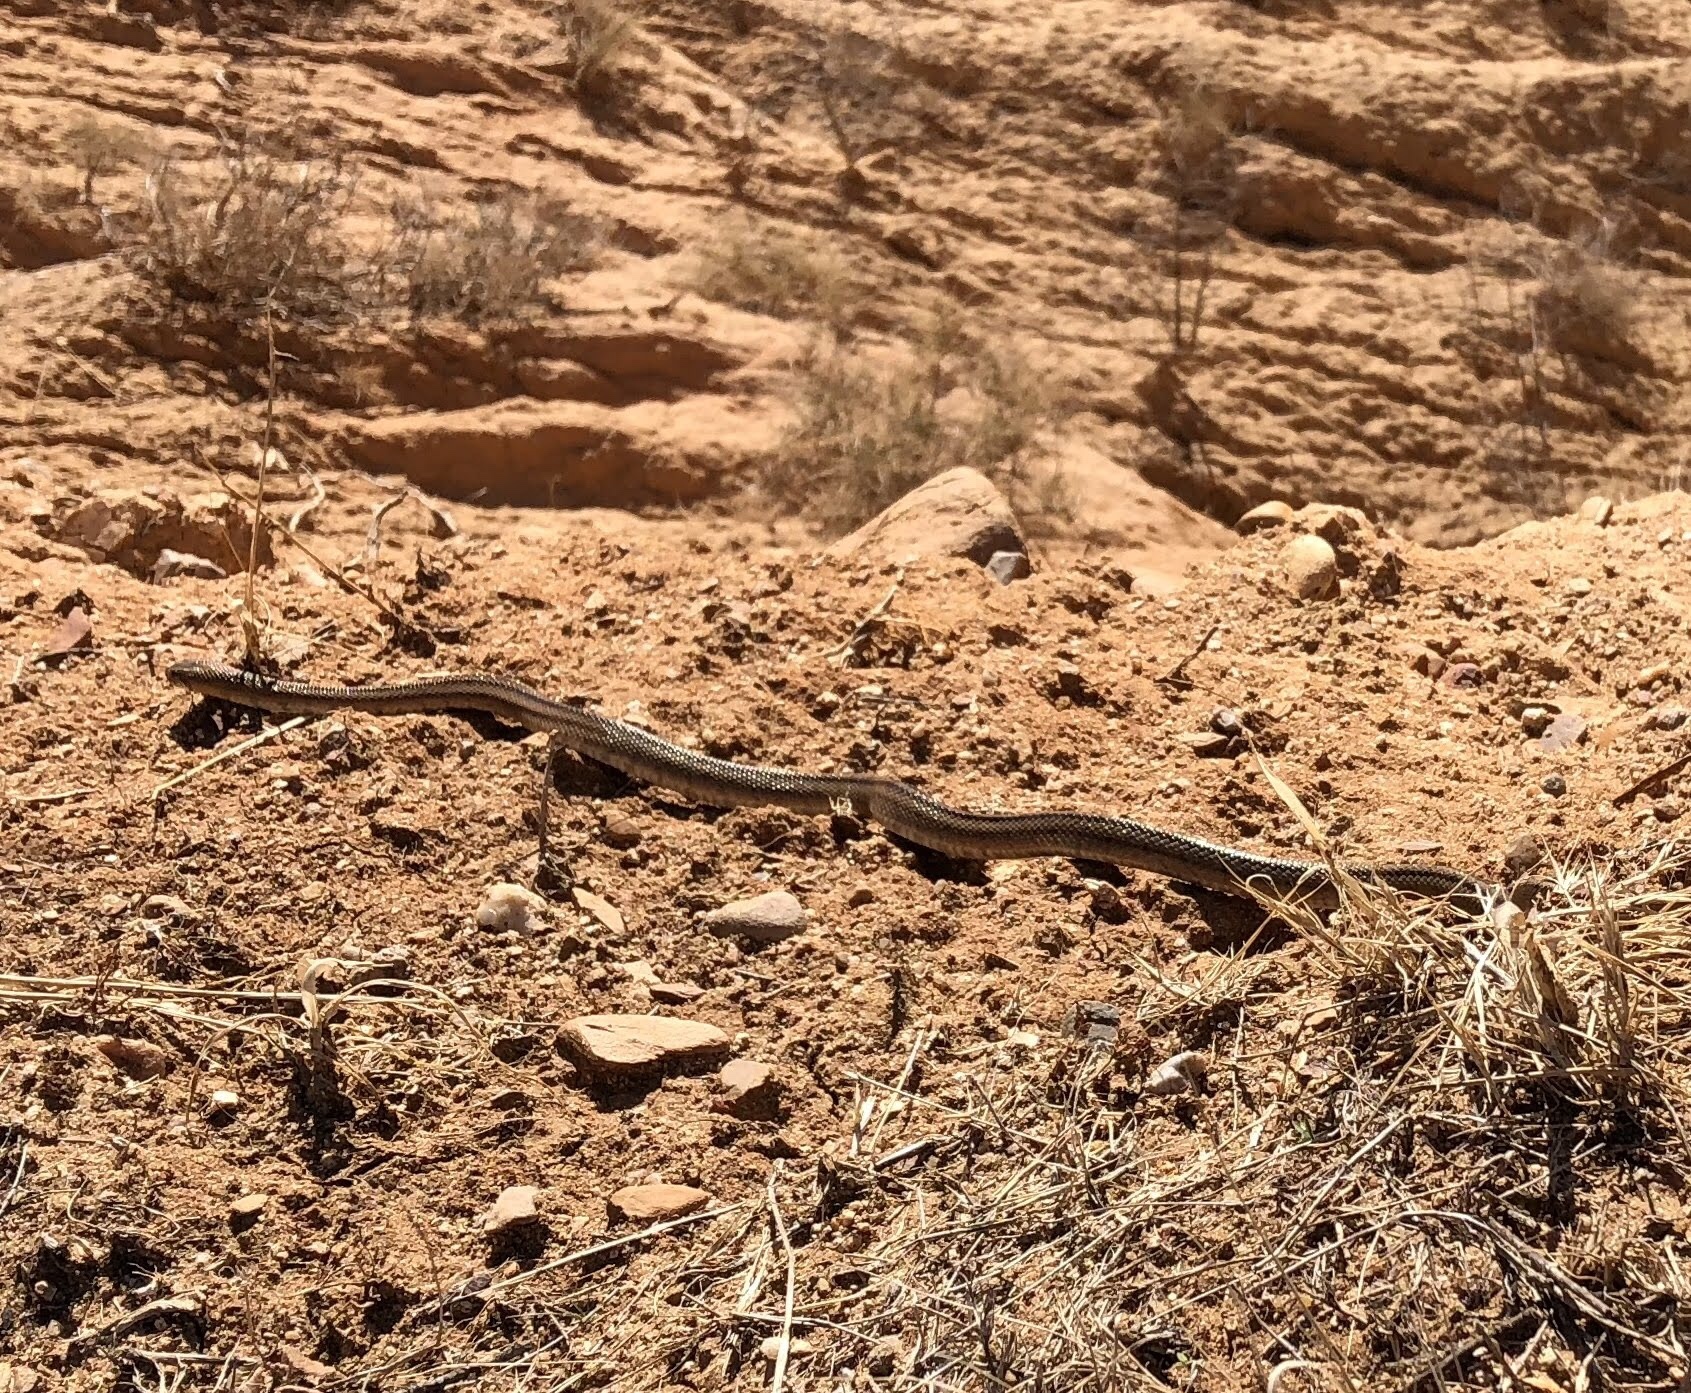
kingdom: Animalia
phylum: Chordata
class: Squamata
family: Colubridae
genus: Zamenis
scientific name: Zamenis scalaris
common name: Ladder snakes
